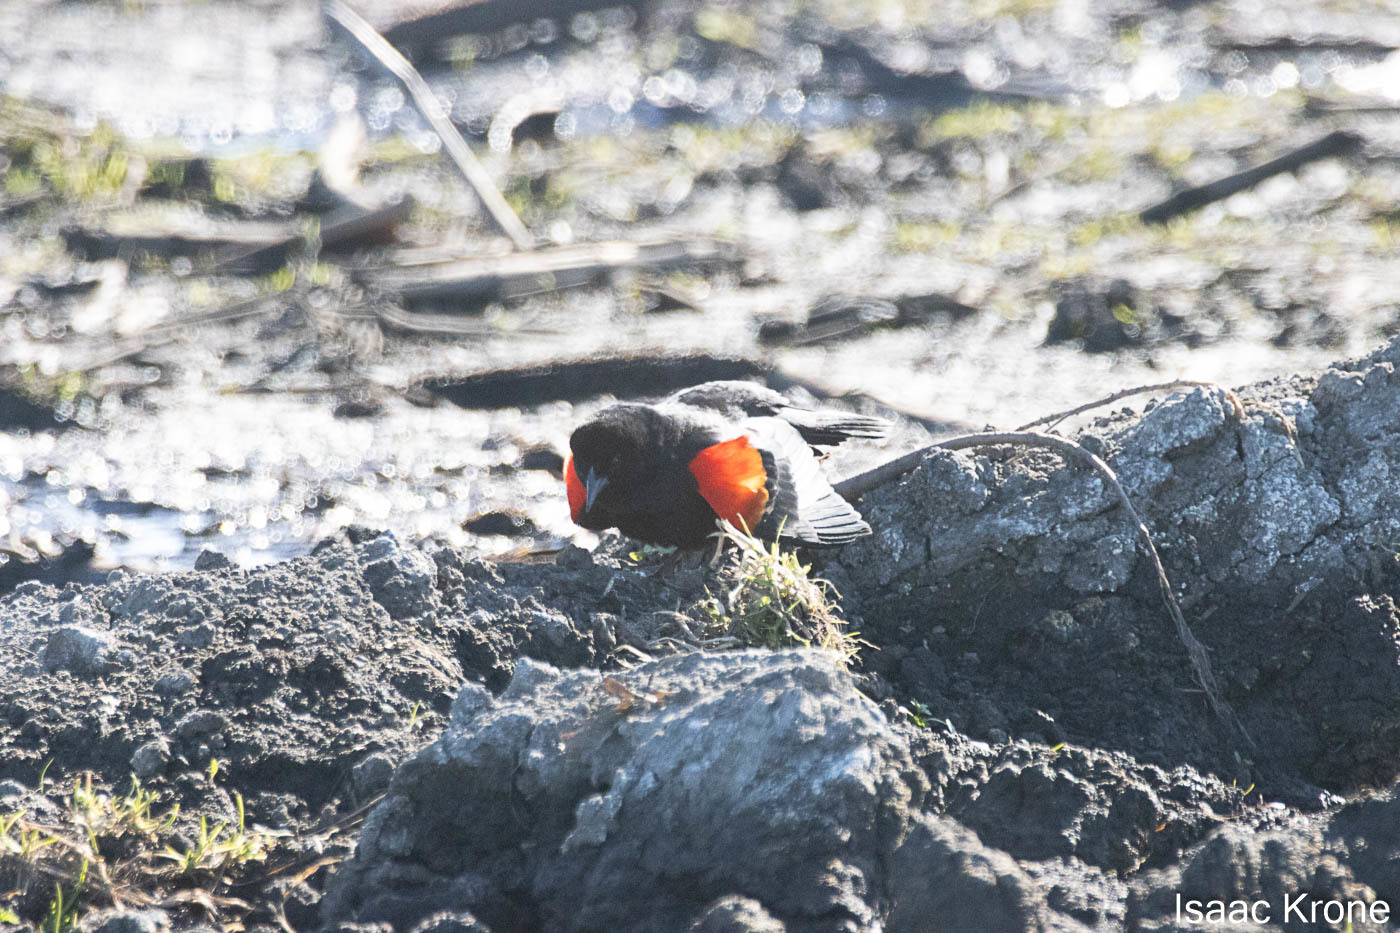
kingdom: Animalia
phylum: Chordata
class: Aves
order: Passeriformes
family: Icteridae
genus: Agelaius
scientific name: Agelaius phoeniceus
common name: Red-winged blackbird
